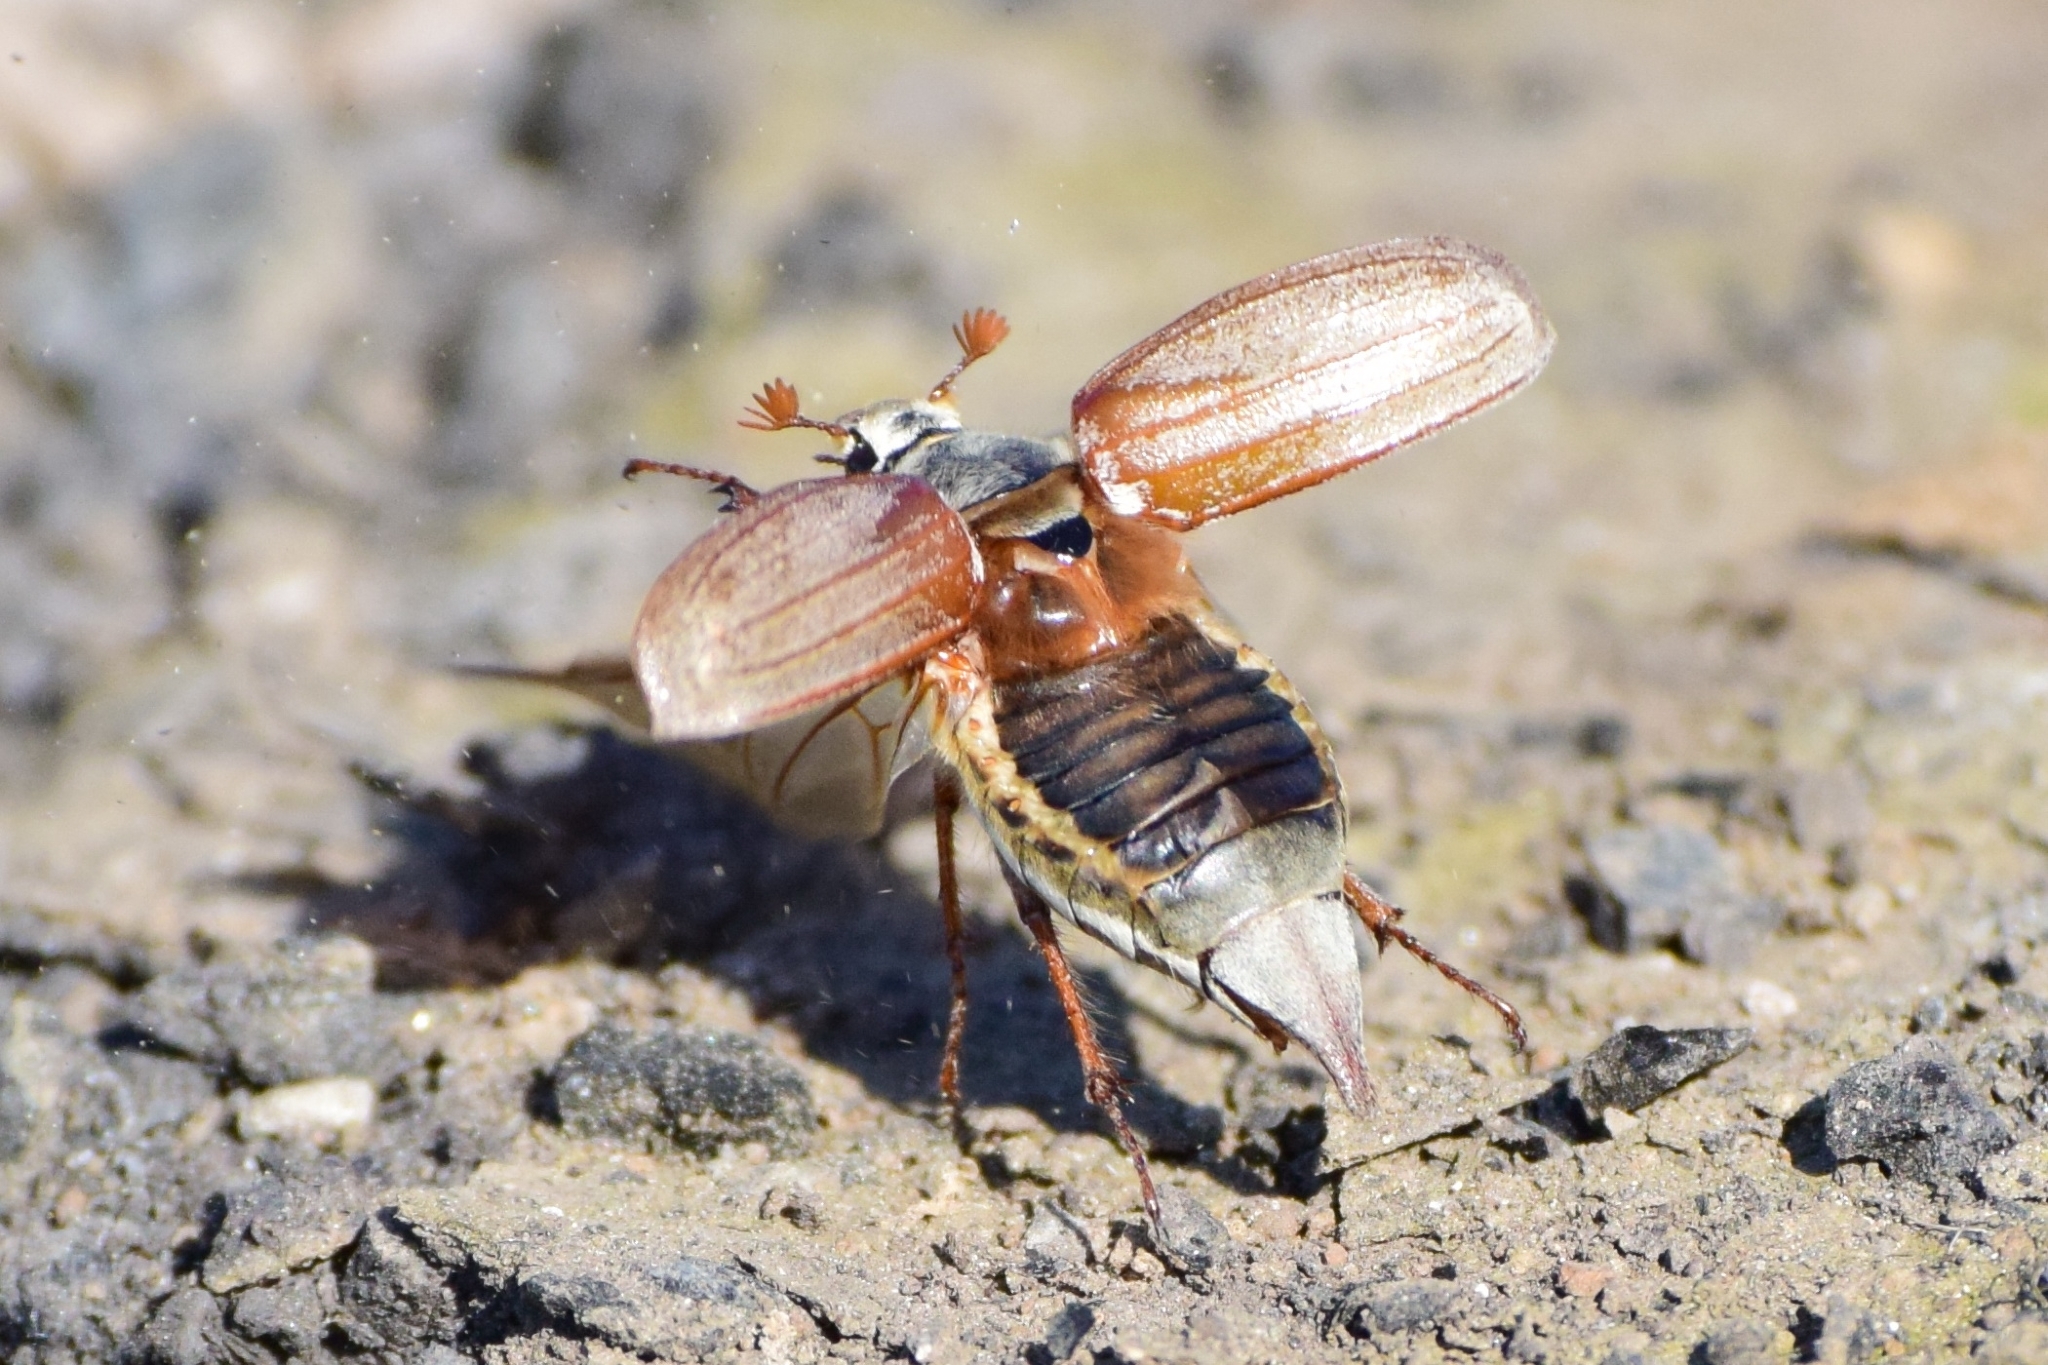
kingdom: Animalia
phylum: Arthropoda
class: Insecta
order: Coleoptera
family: Scarabaeidae
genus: Melolontha
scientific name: Melolontha melolontha
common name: Cockchafer maybeetle
